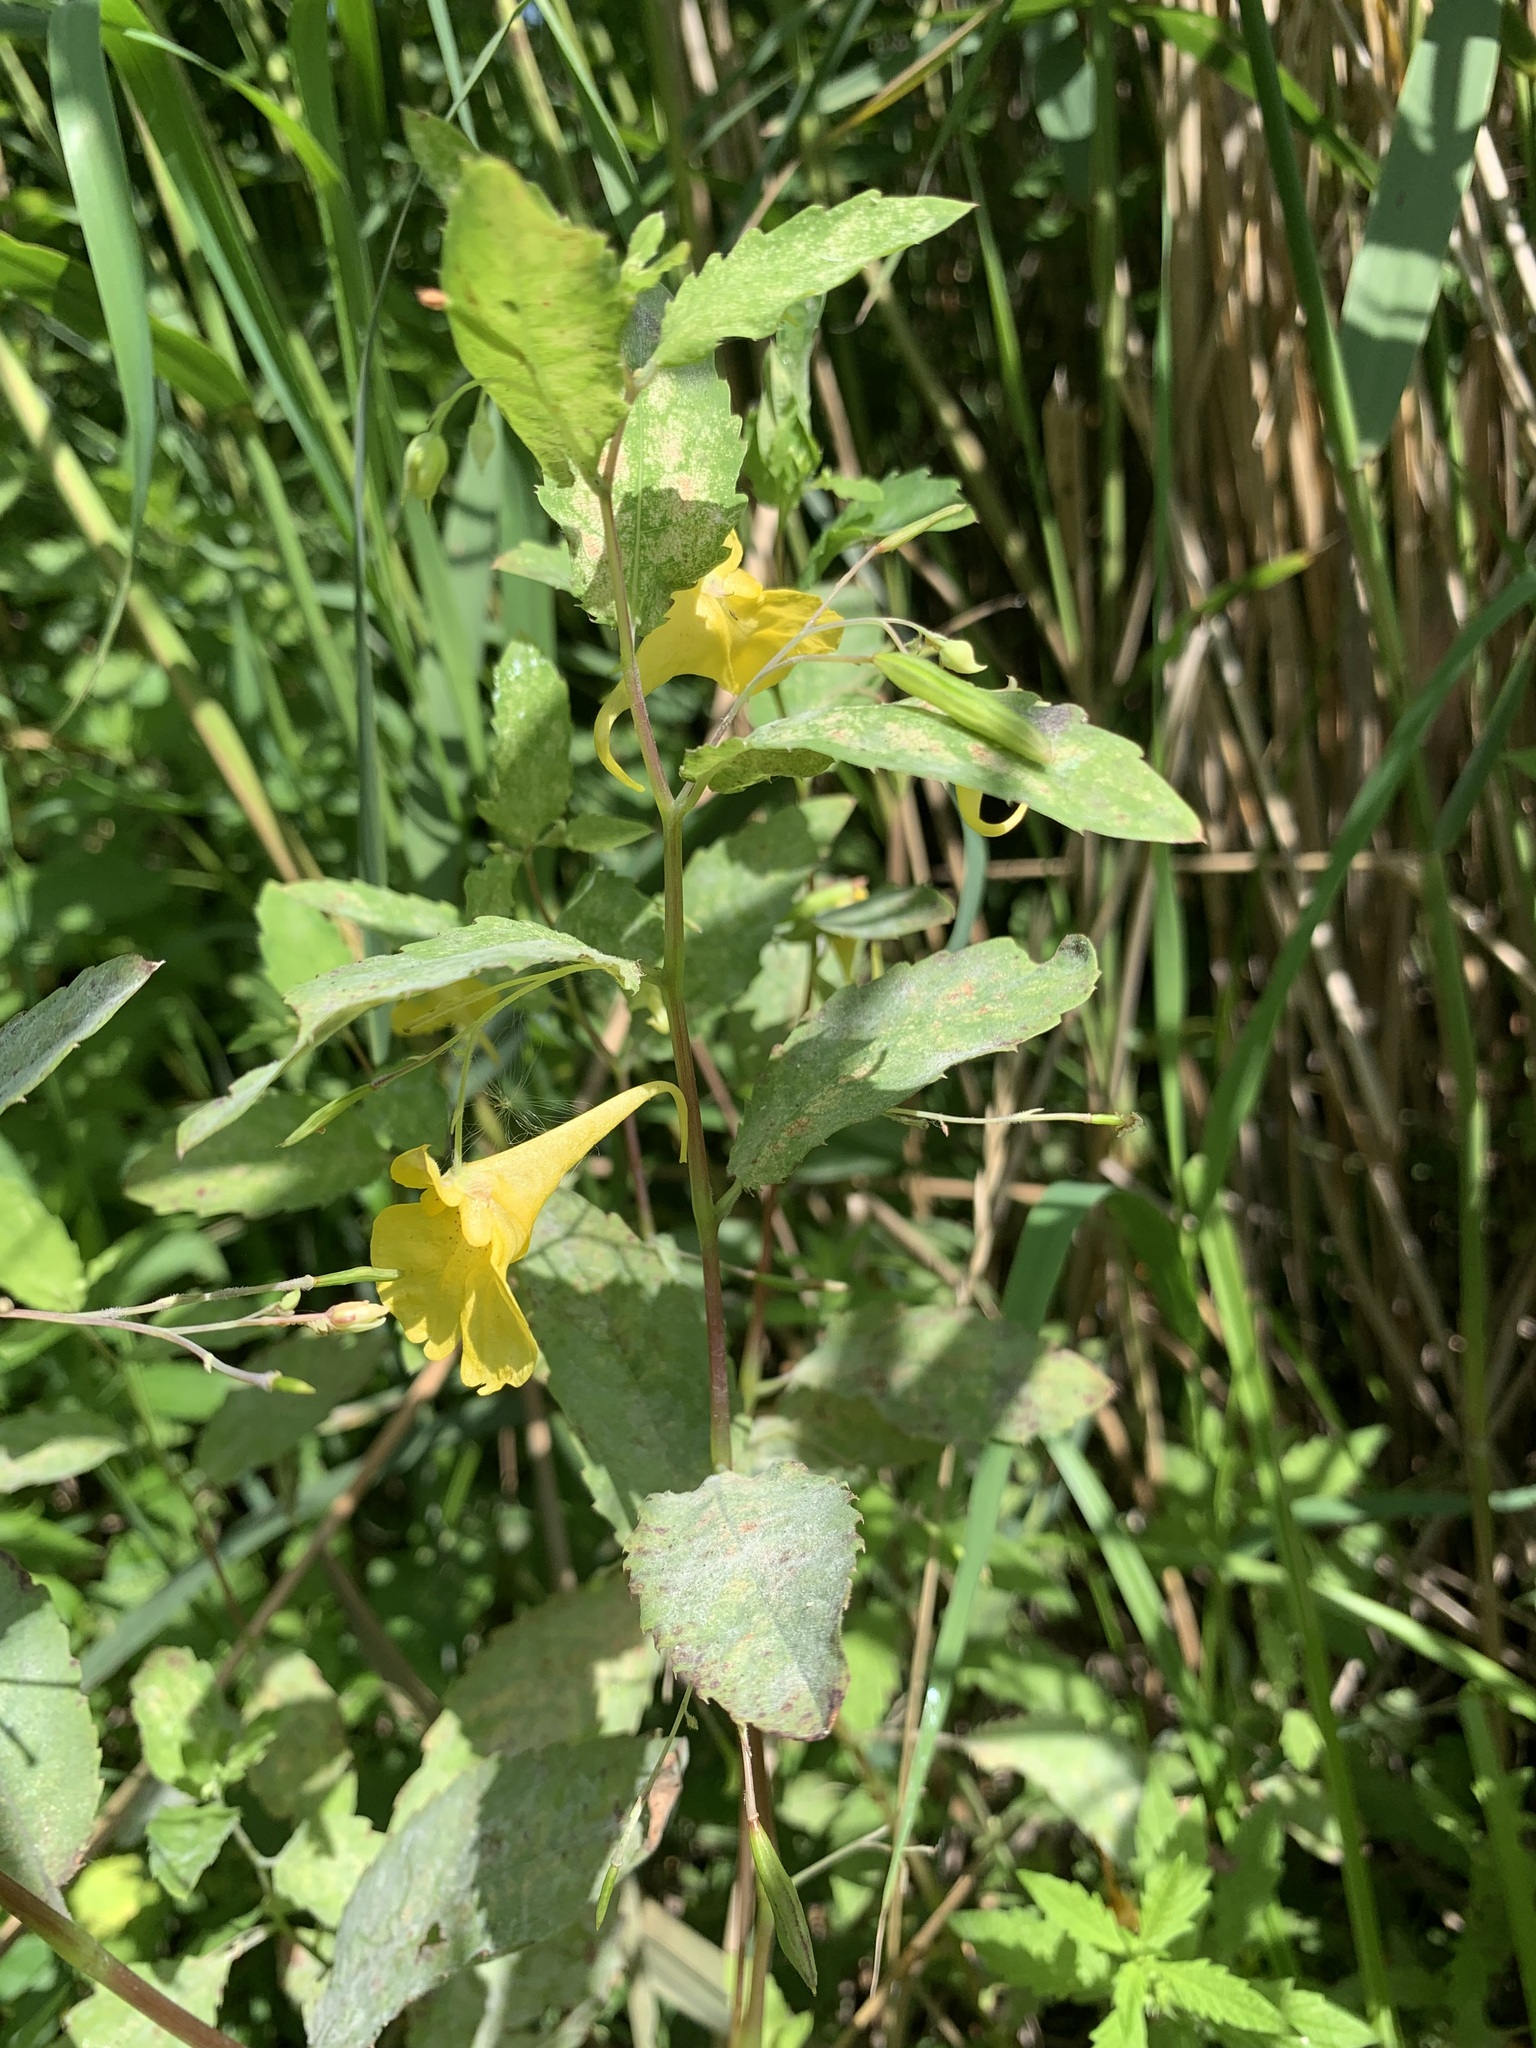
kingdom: Plantae
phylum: Tracheophyta
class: Magnoliopsida
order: Ericales
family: Balsaminaceae
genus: Impatiens
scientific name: Impatiens noli-tangere
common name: Touch-me-not balsam
